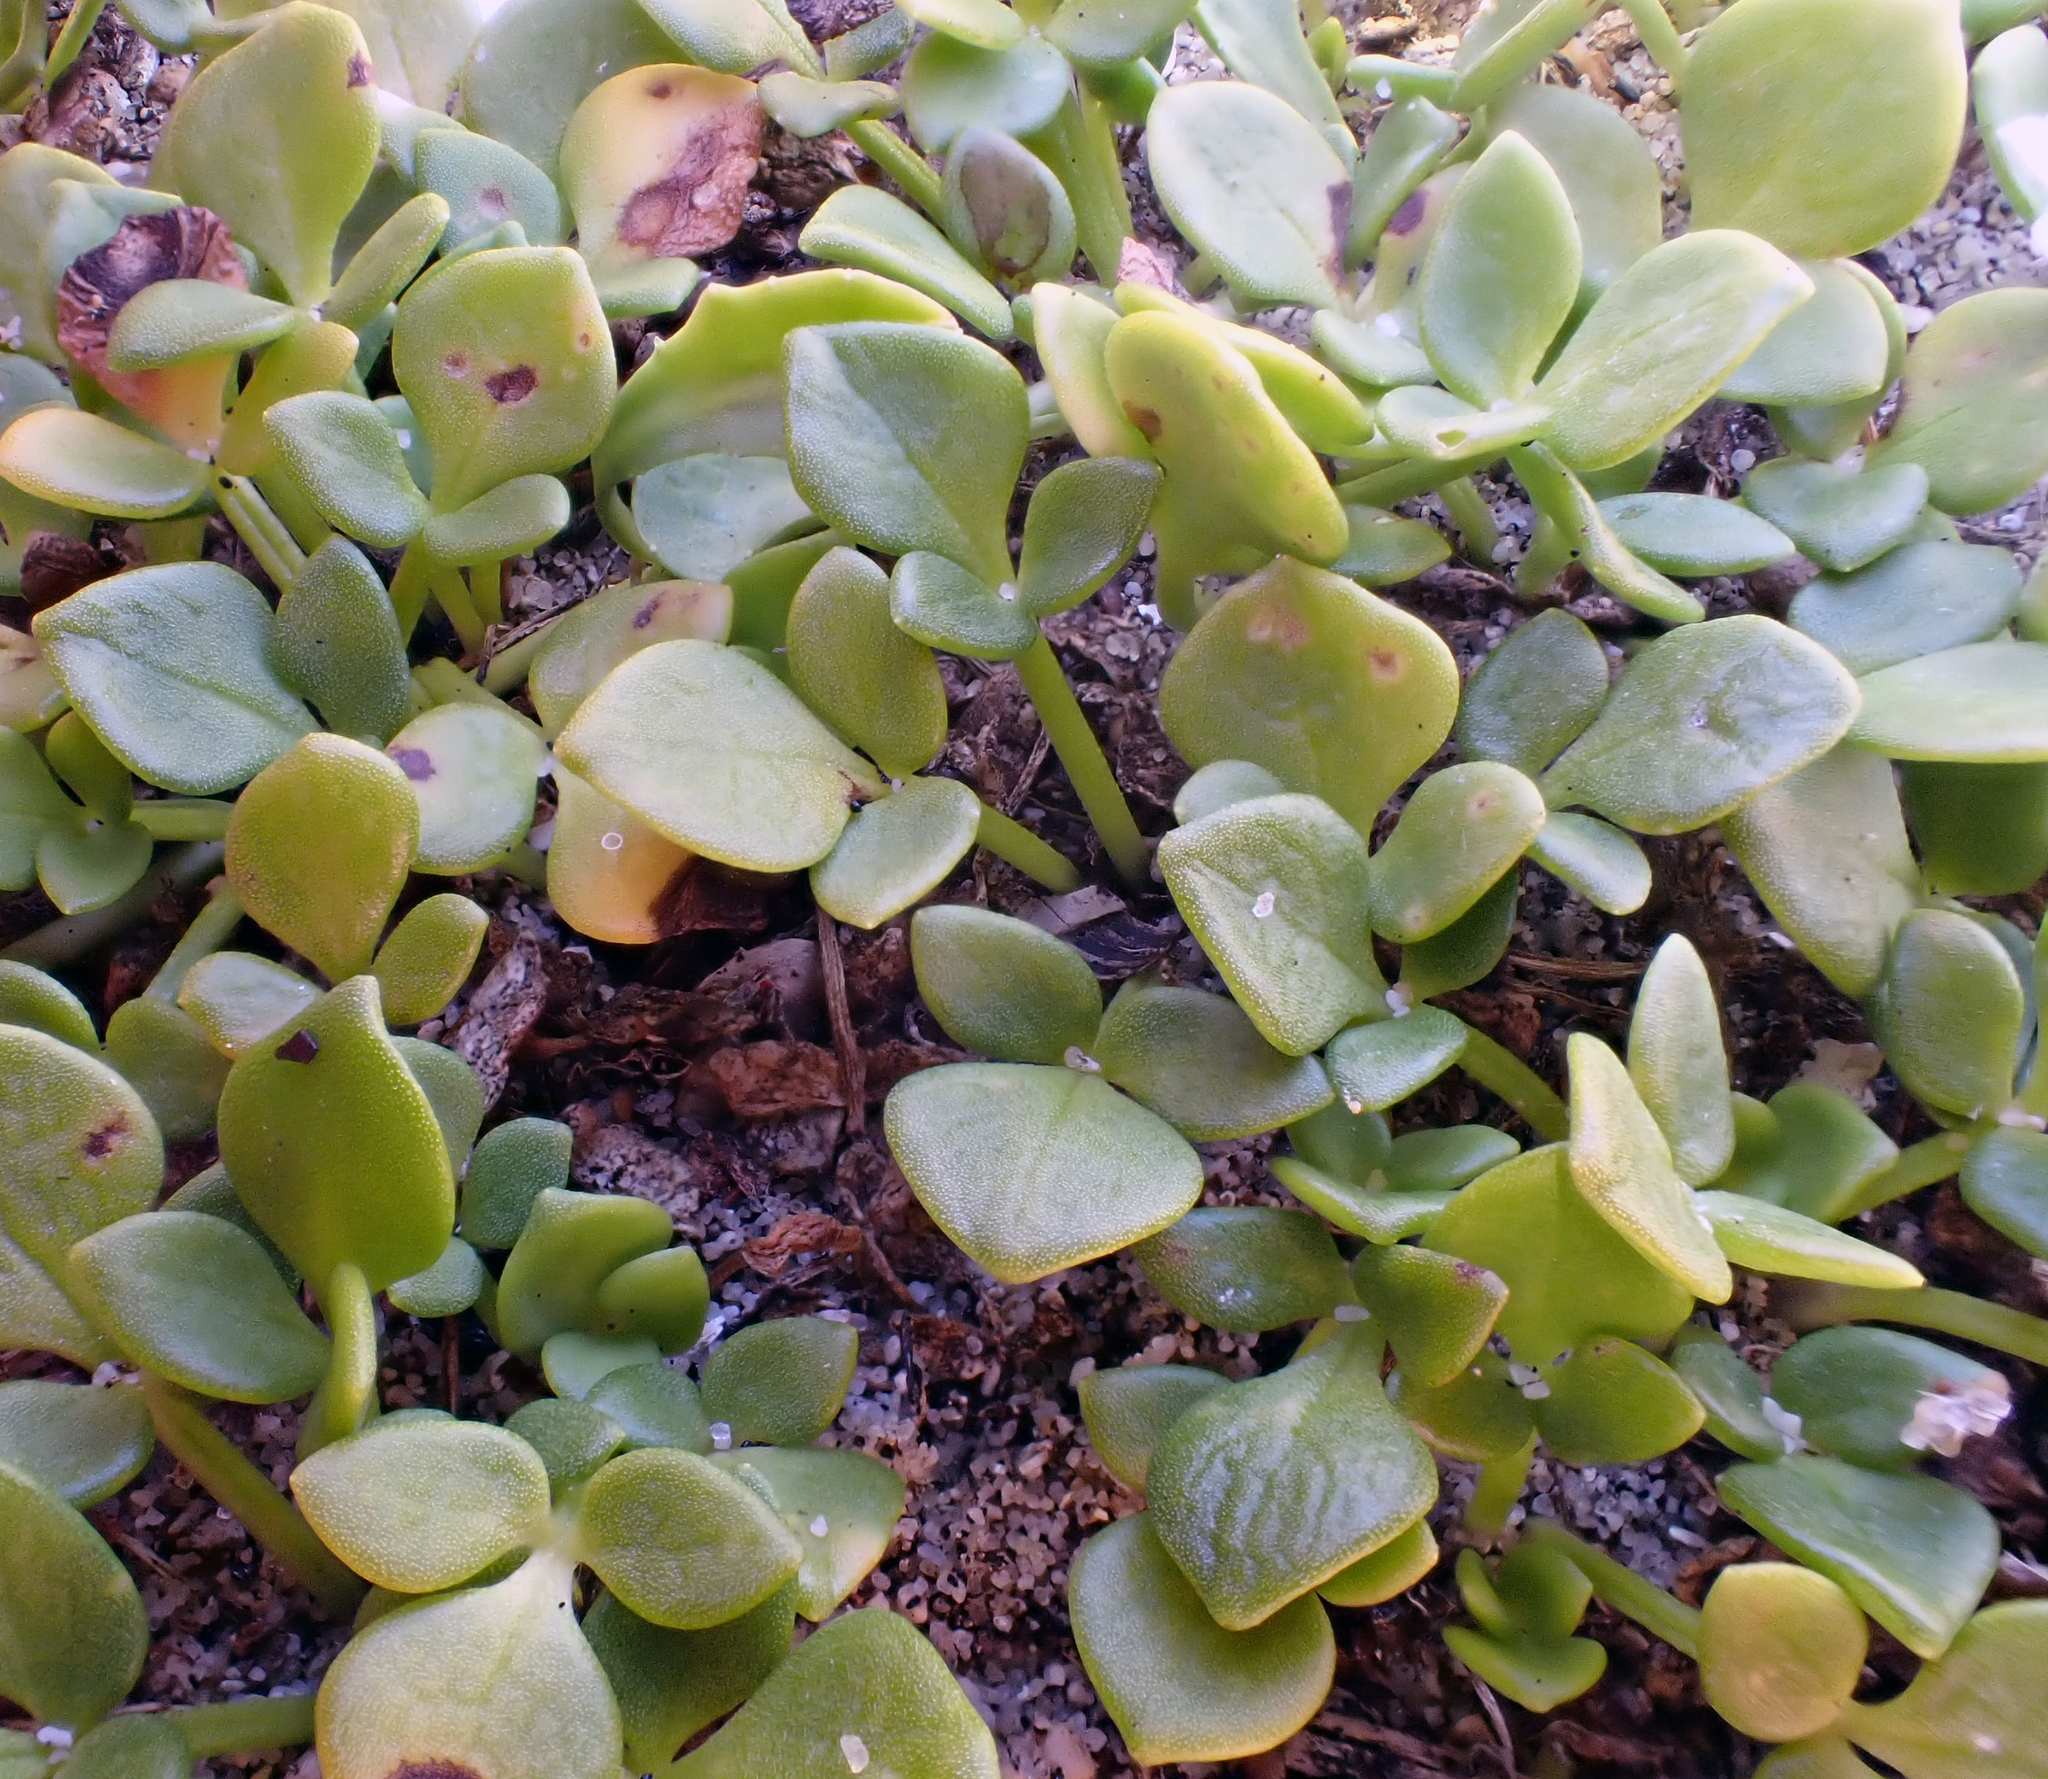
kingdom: Plantae
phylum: Tracheophyta
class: Magnoliopsida
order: Ranunculales
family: Ranunculaceae
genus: Ranunculus
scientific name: Ranunculus acaulis
